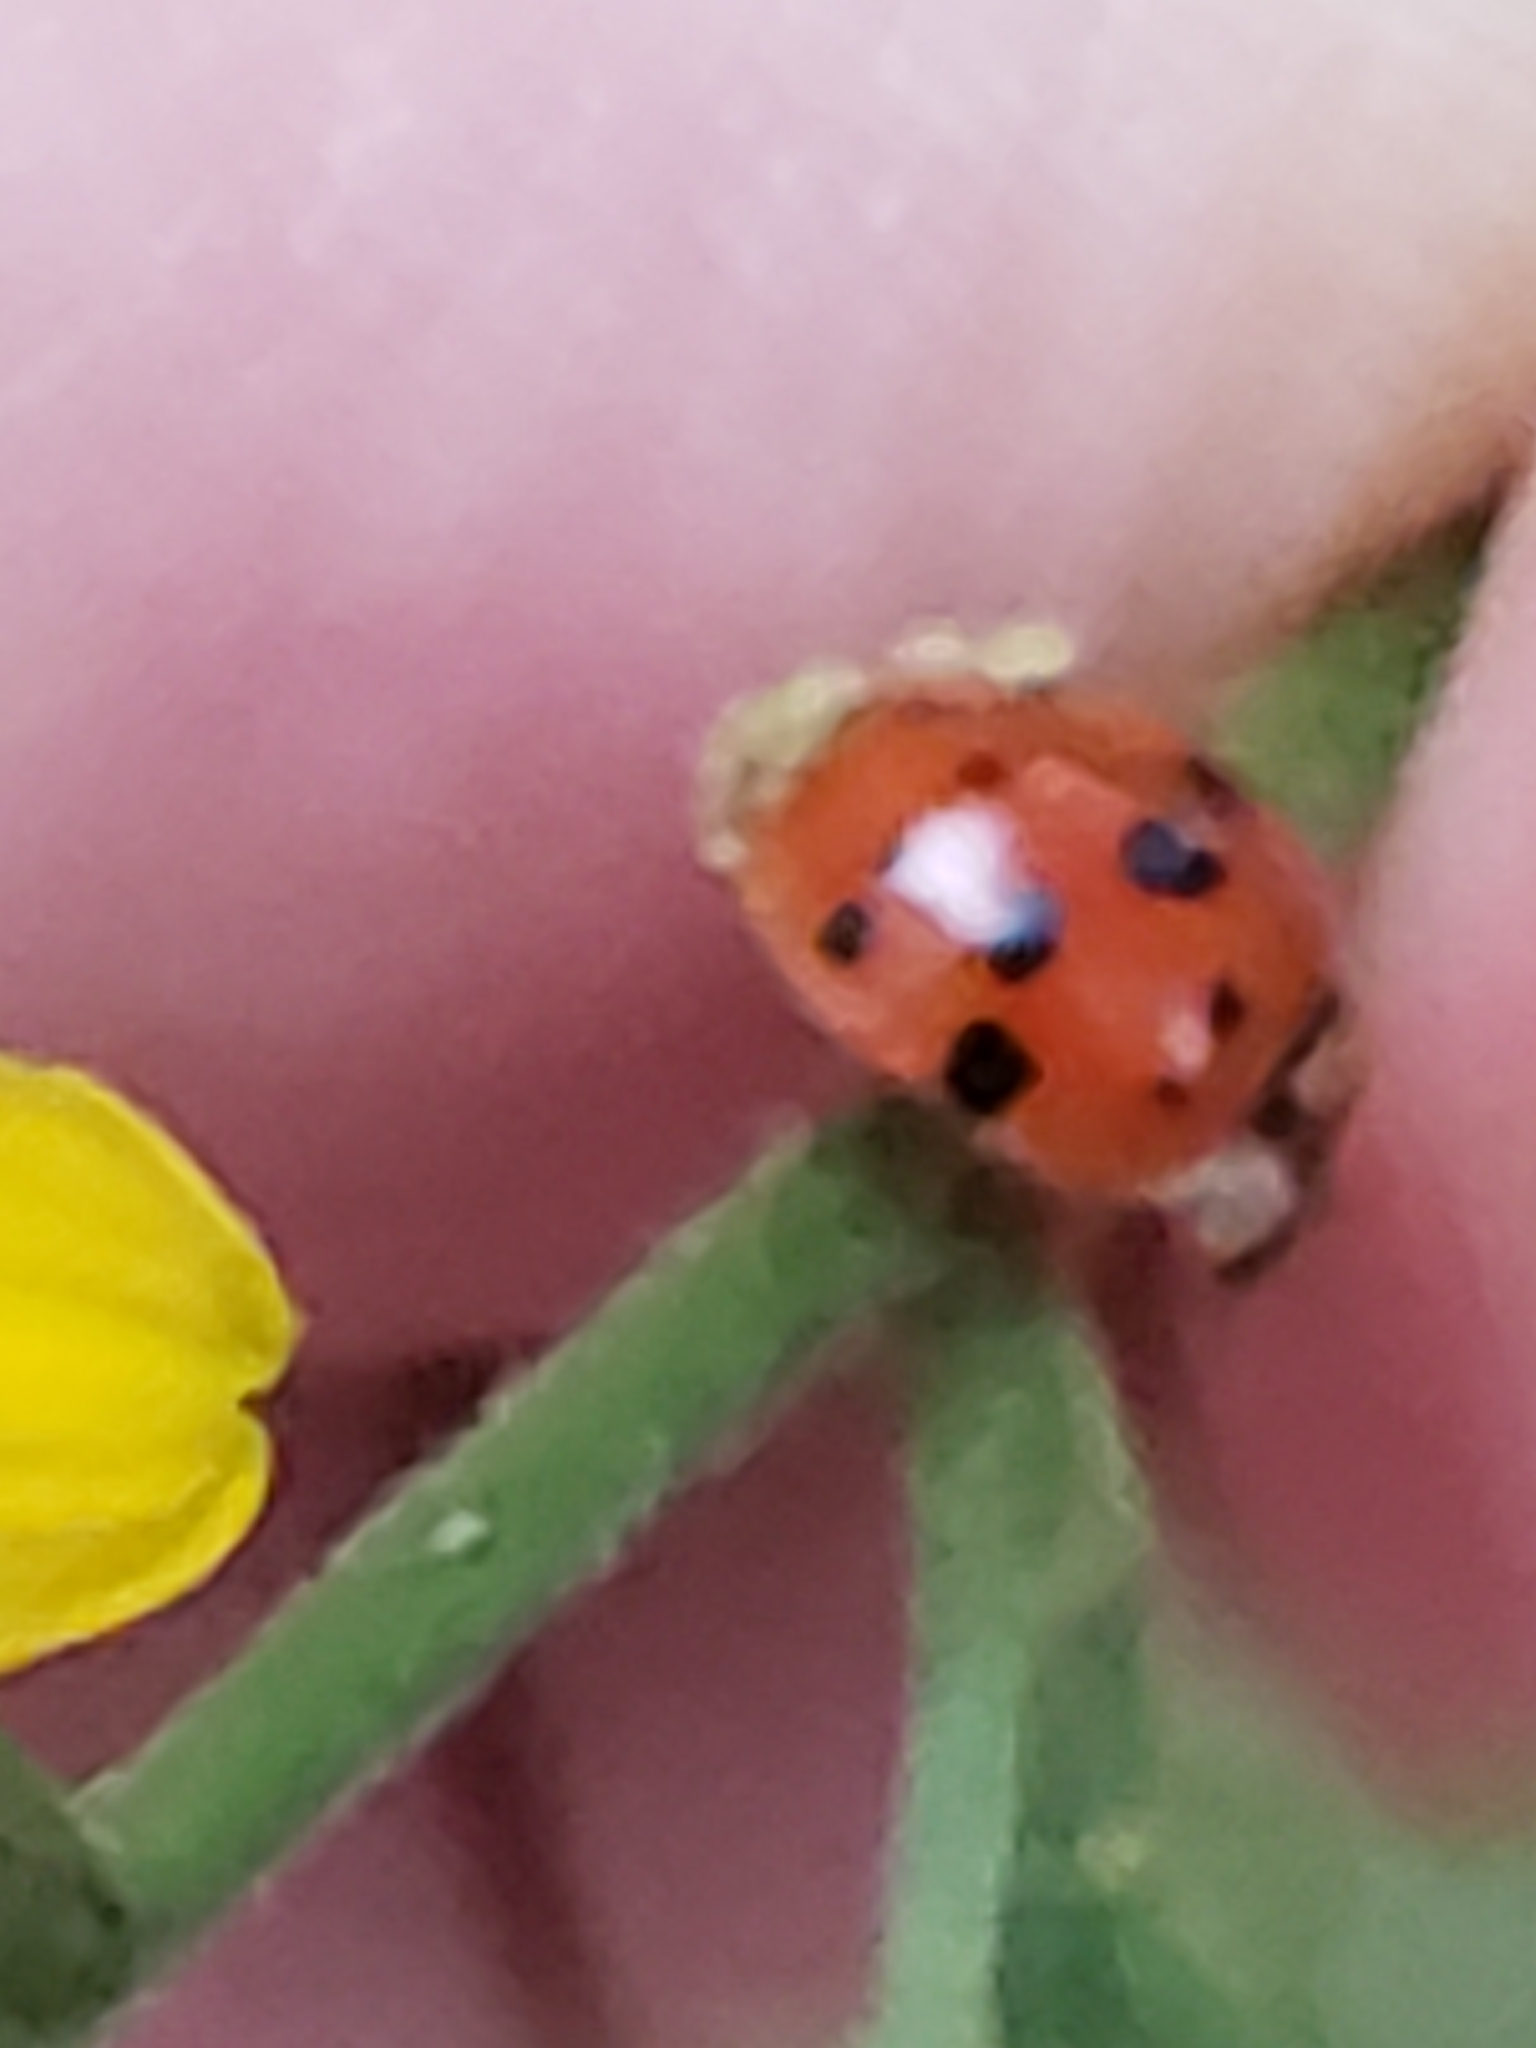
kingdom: Fungi
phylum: Ascomycota
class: Laboulbeniomycetes
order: Laboulbeniales
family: Laboulbeniaceae
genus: Hesperomyces
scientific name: Hesperomyces harmoniae
